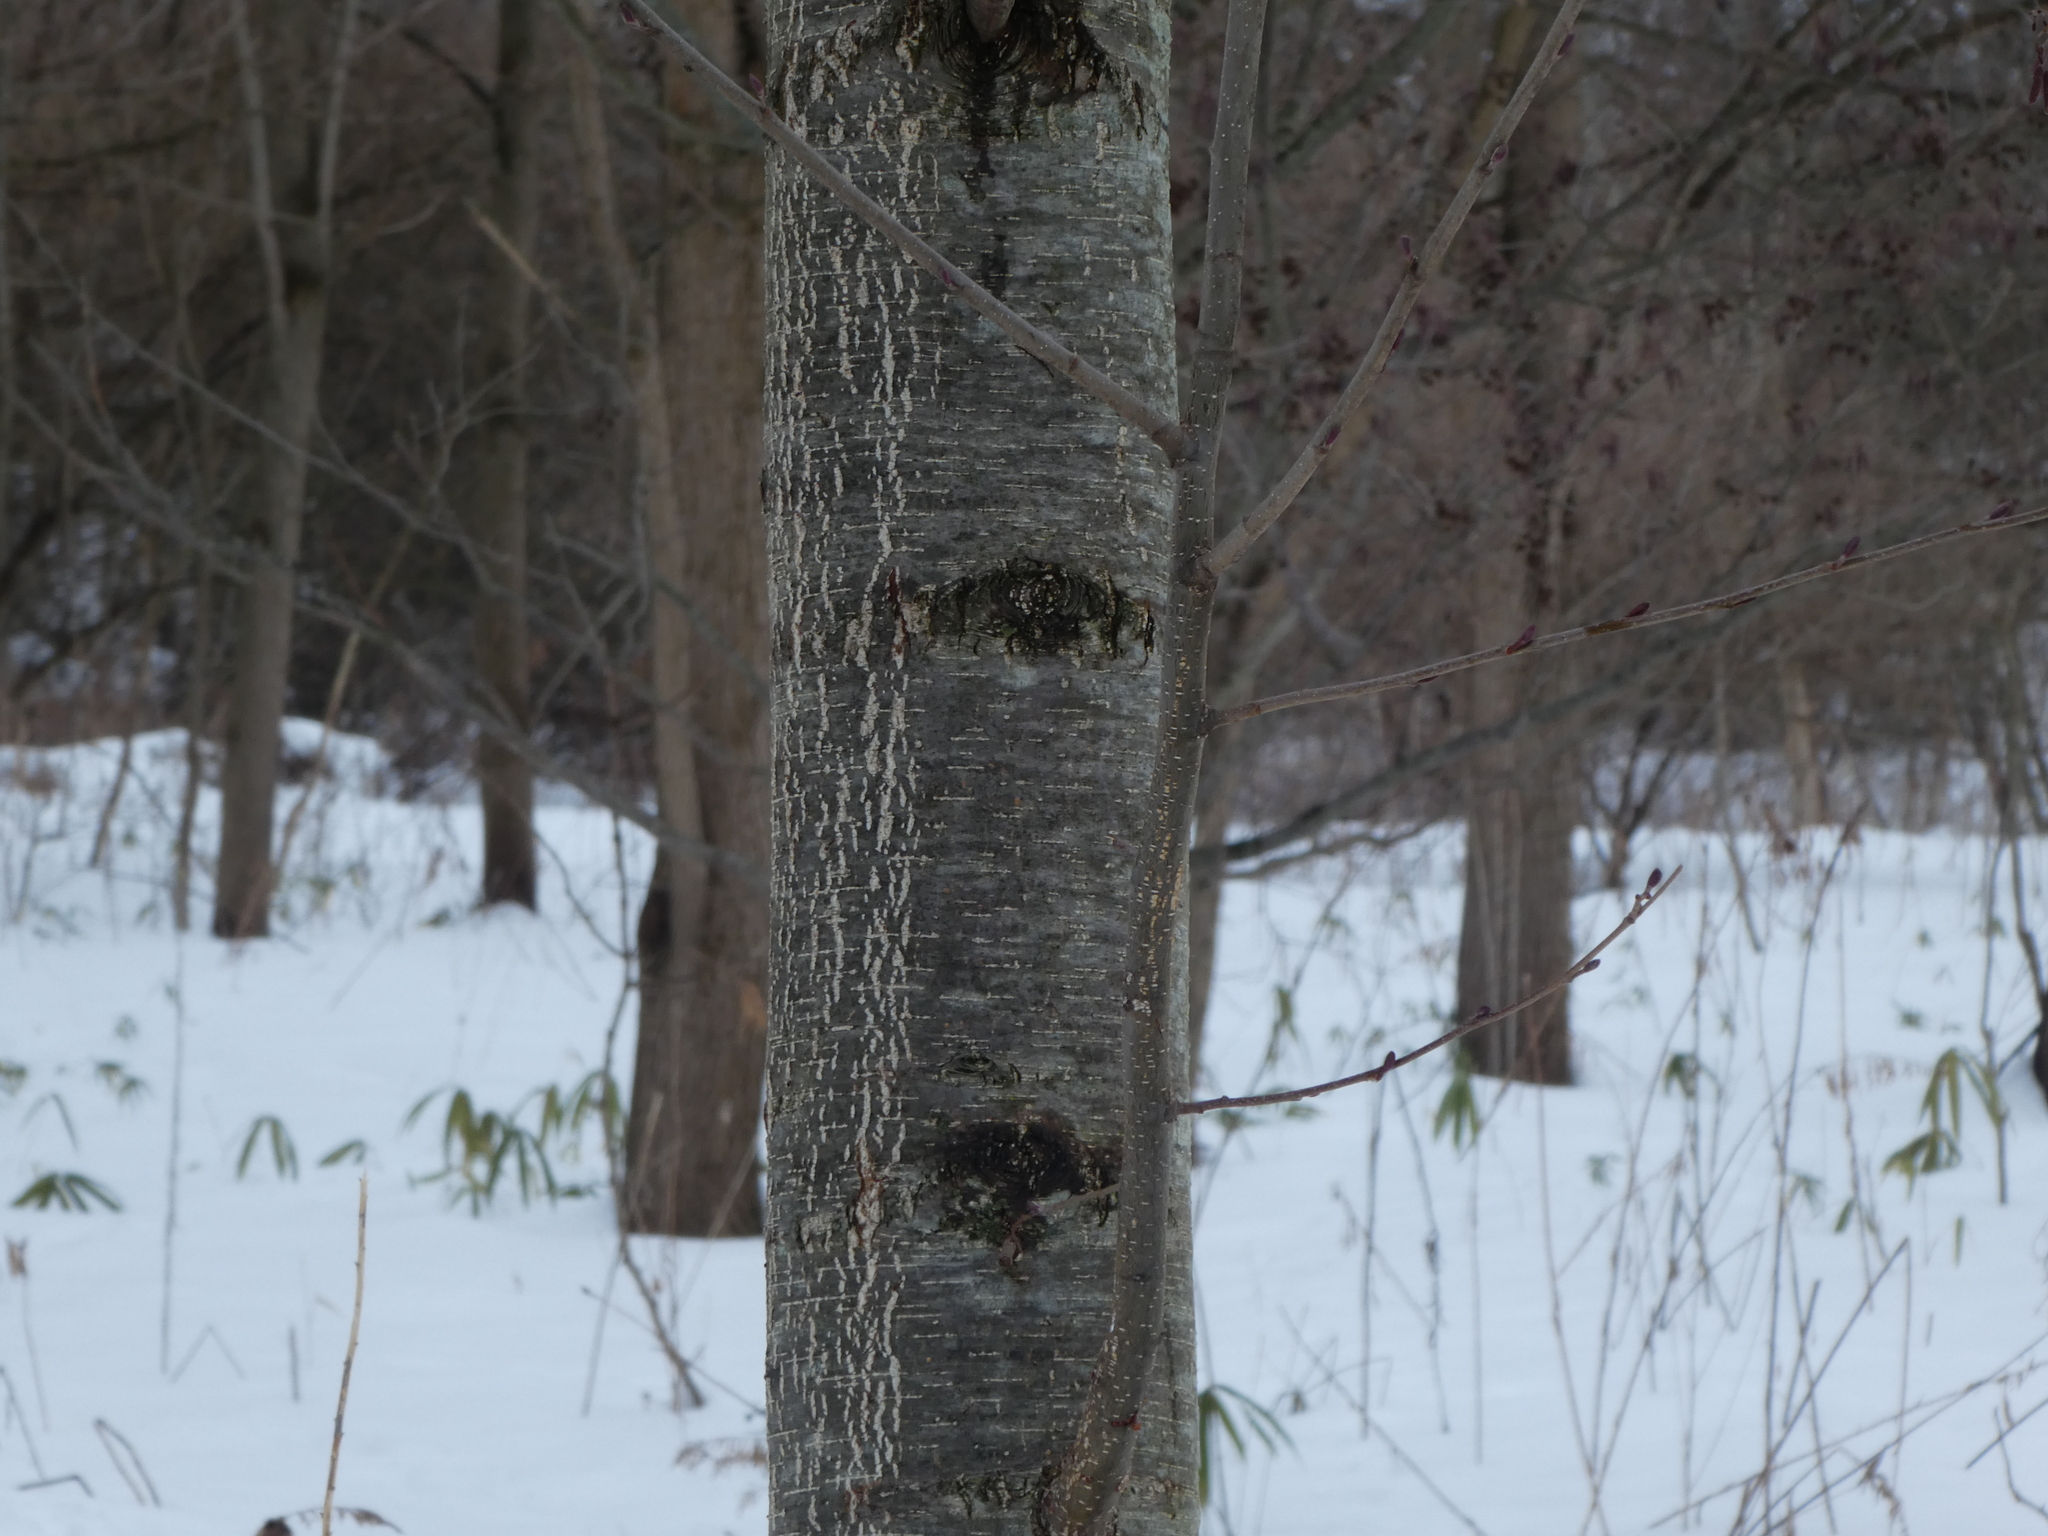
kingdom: Plantae
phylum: Tracheophyta
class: Magnoliopsida
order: Fagales
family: Betulaceae
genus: Alnus
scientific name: Alnus glutinosa
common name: Black alder
